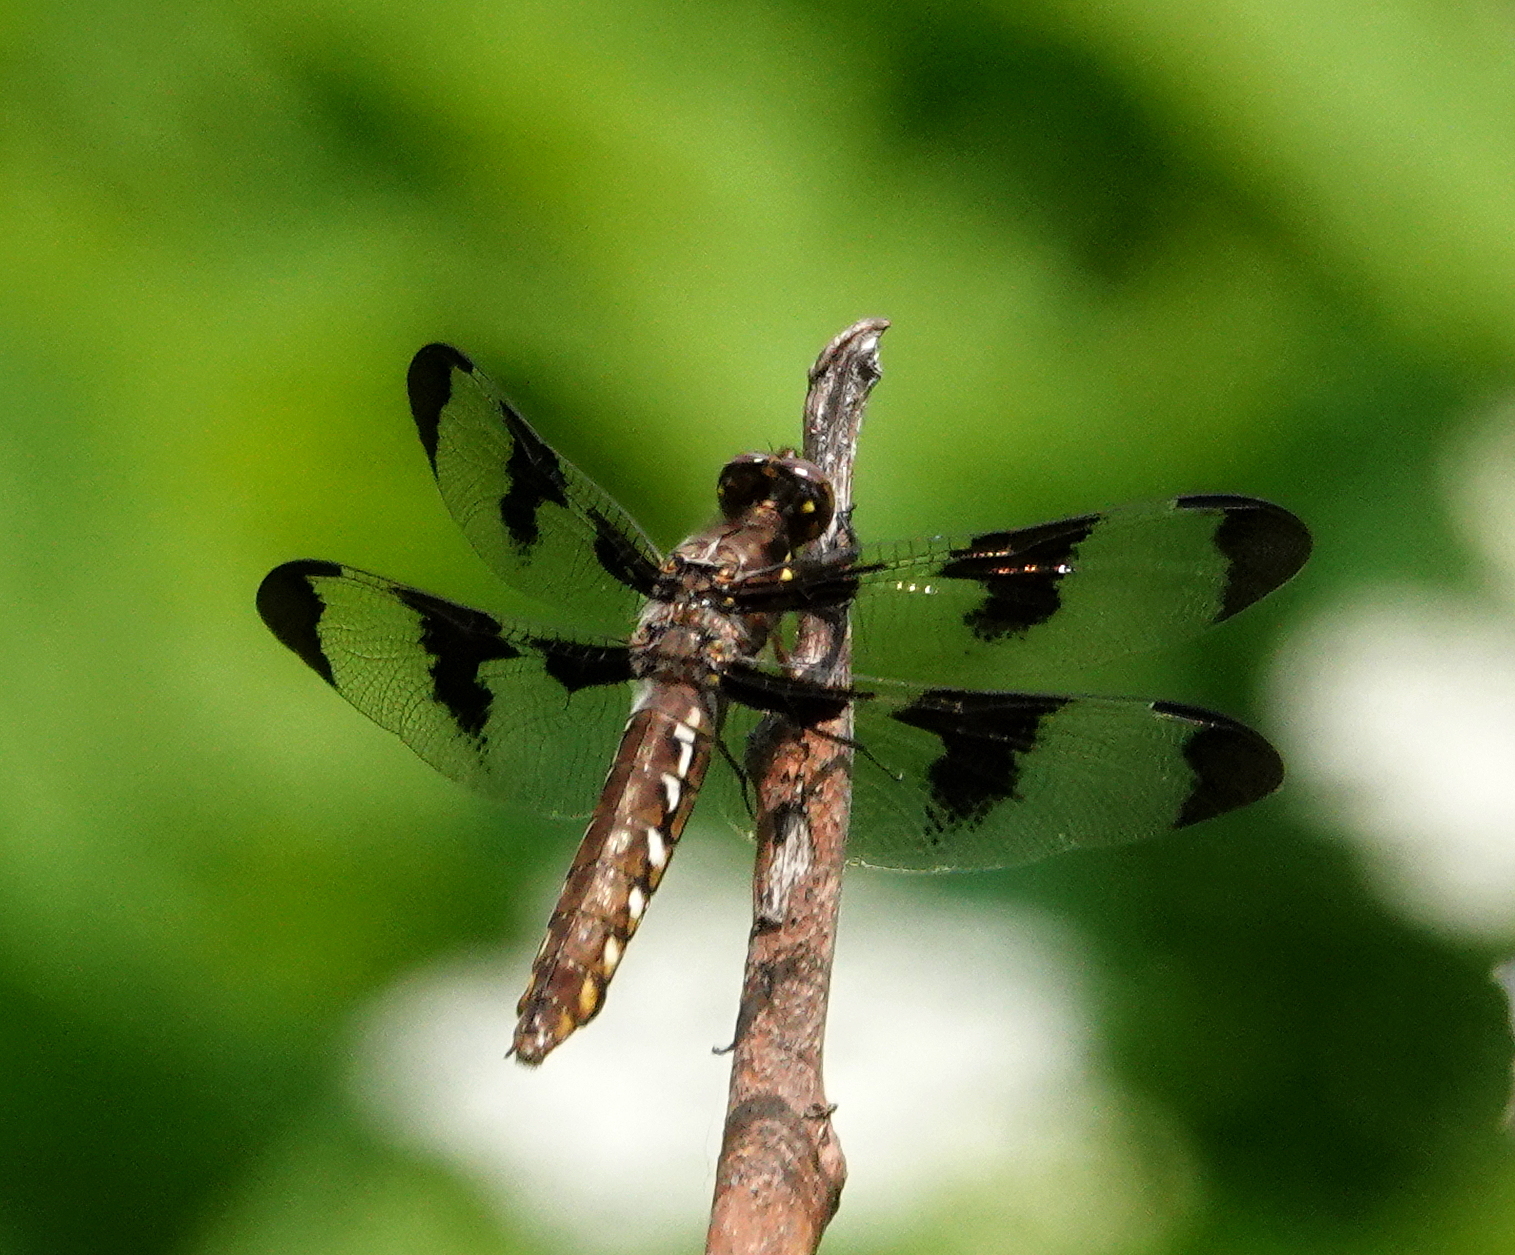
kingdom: Animalia
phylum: Arthropoda
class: Insecta
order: Odonata
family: Libellulidae
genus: Plathemis
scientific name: Plathemis lydia
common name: Common whitetail
